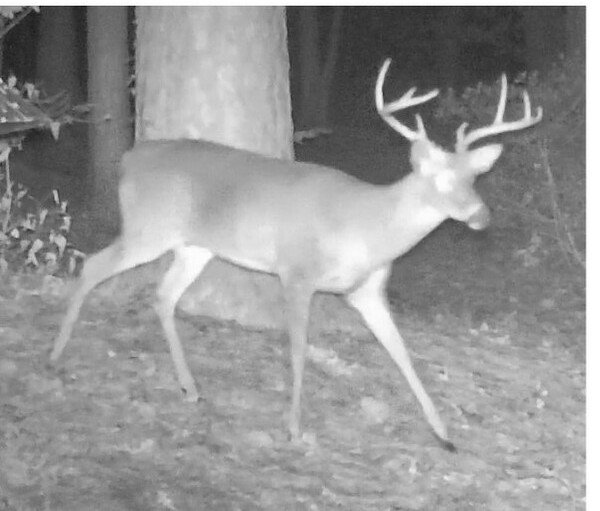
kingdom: Animalia
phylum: Chordata
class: Mammalia
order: Artiodactyla
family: Cervidae
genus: Odocoileus
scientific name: Odocoileus virginianus
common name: White-tailed deer
